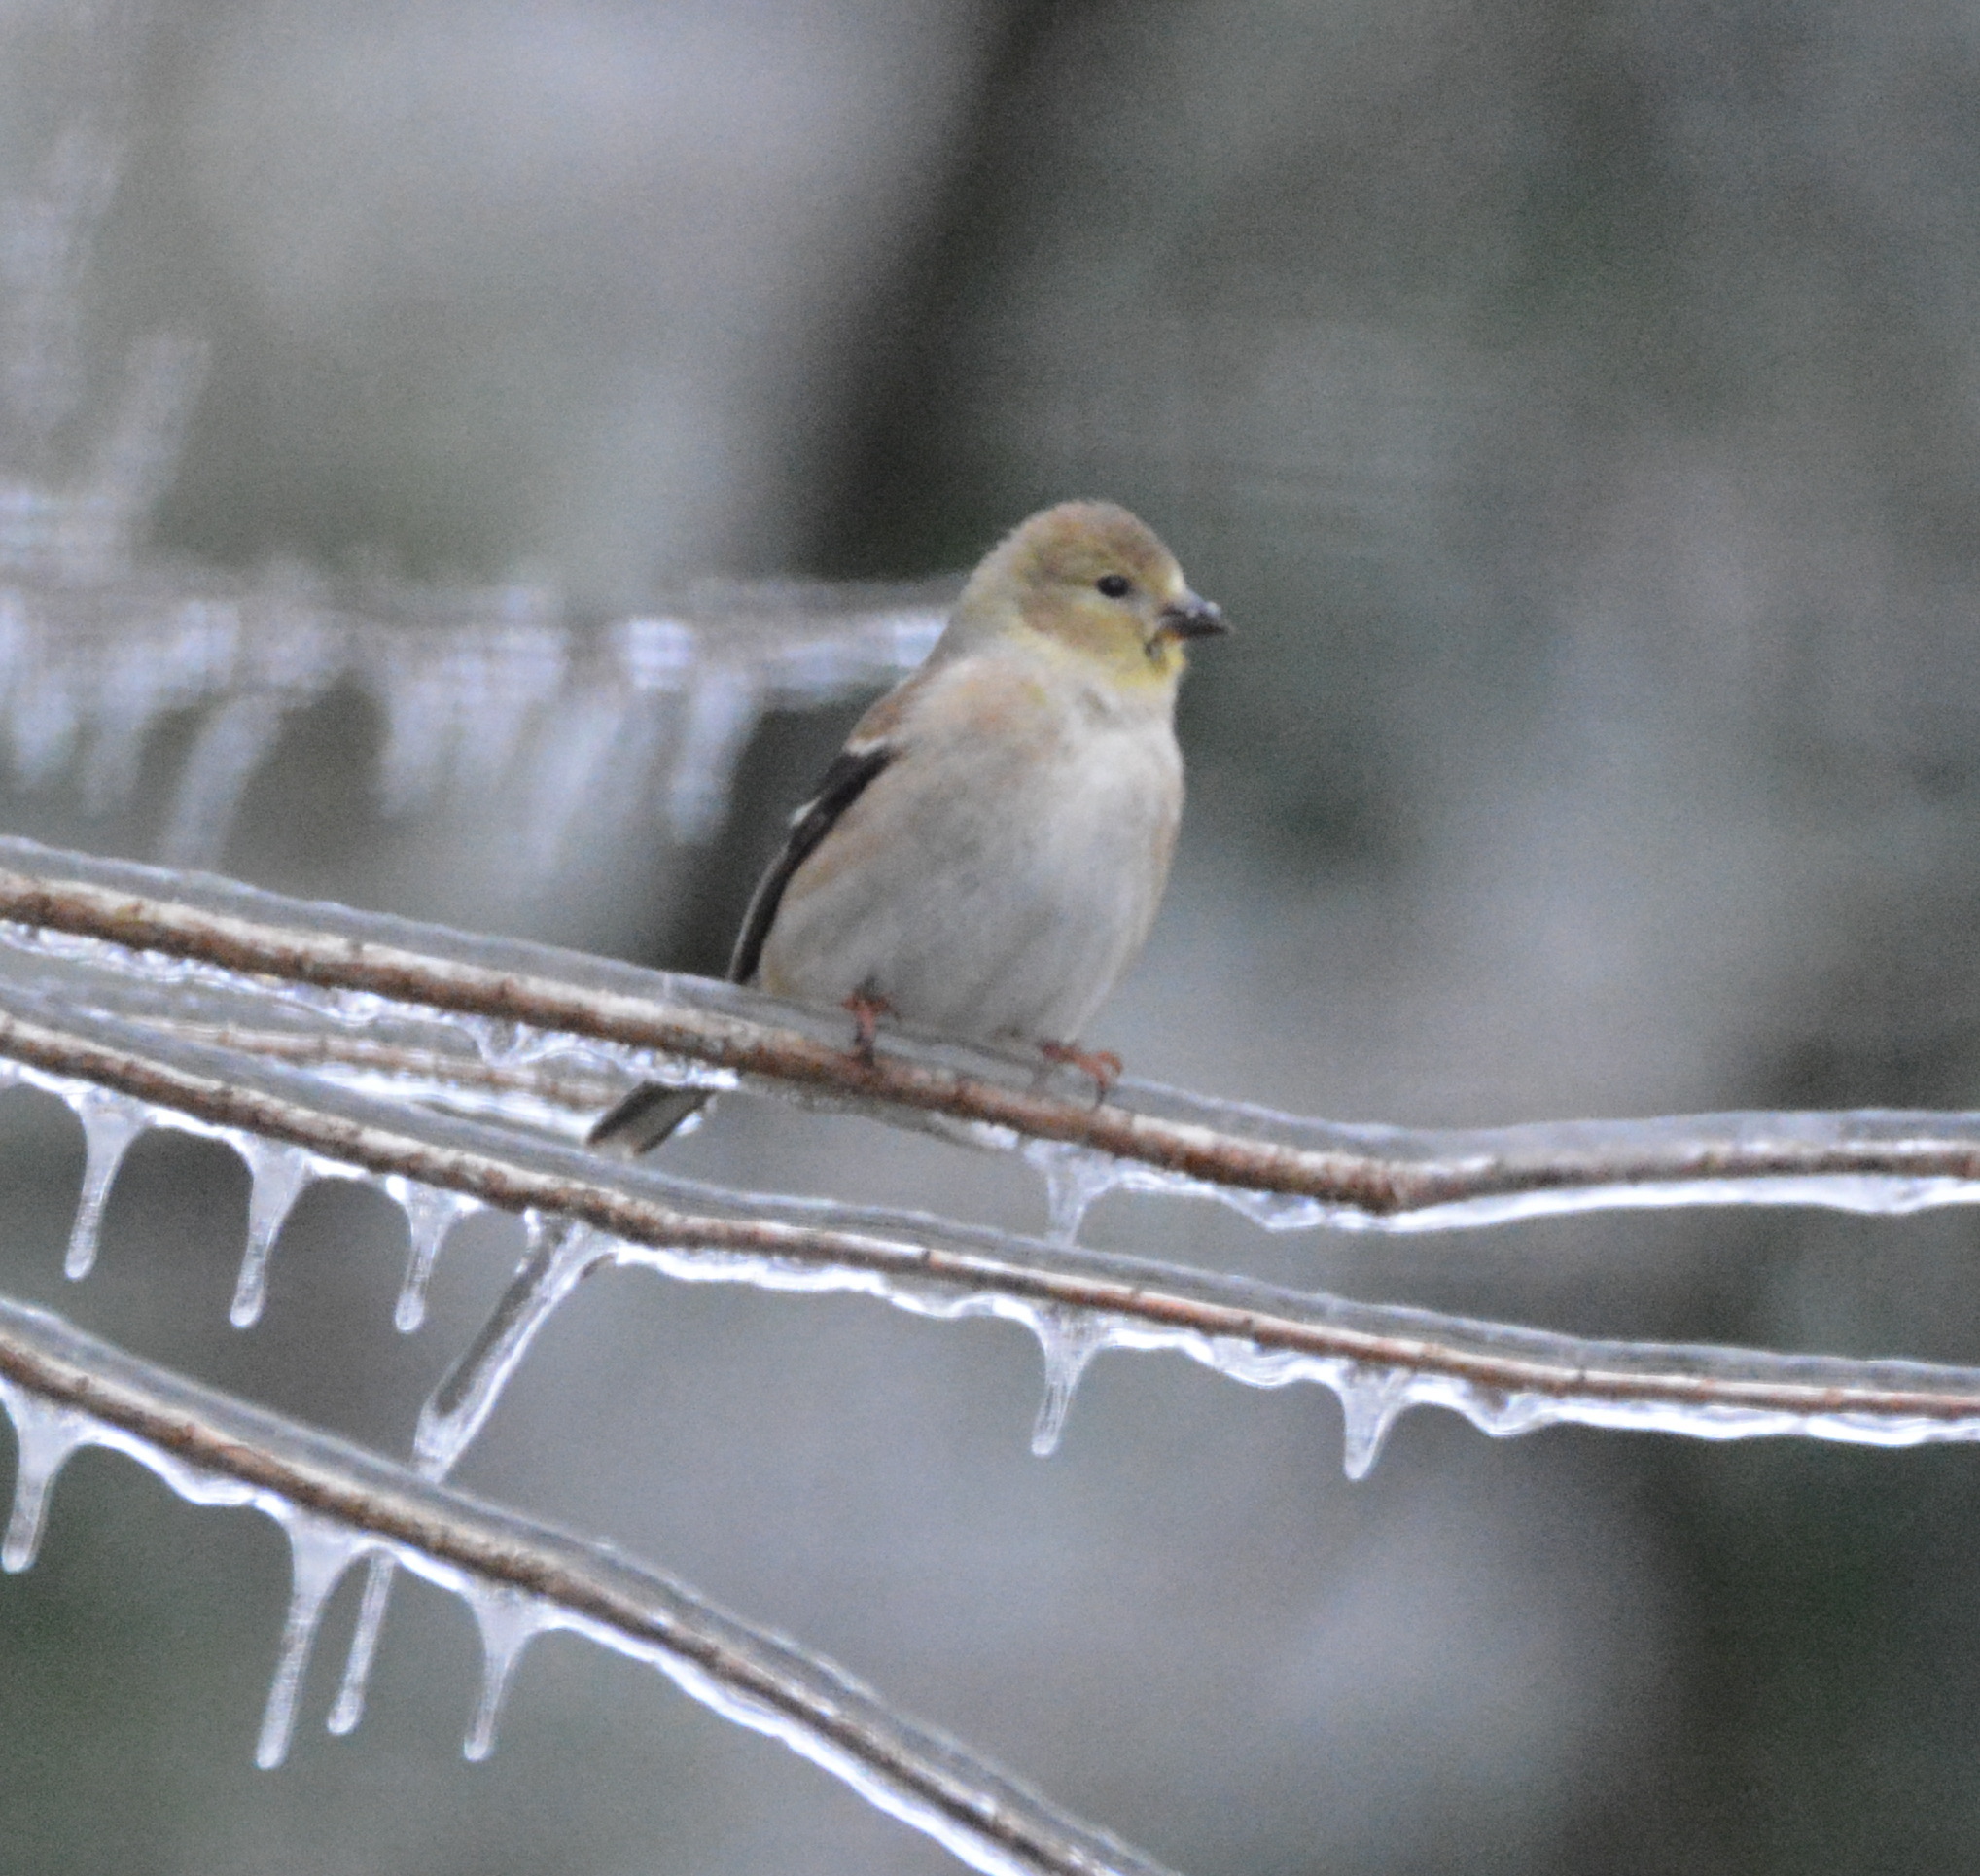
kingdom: Animalia
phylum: Chordata
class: Aves
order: Passeriformes
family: Fringillidae
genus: Spinus
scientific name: Spinus tristis
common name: American goldfinch
